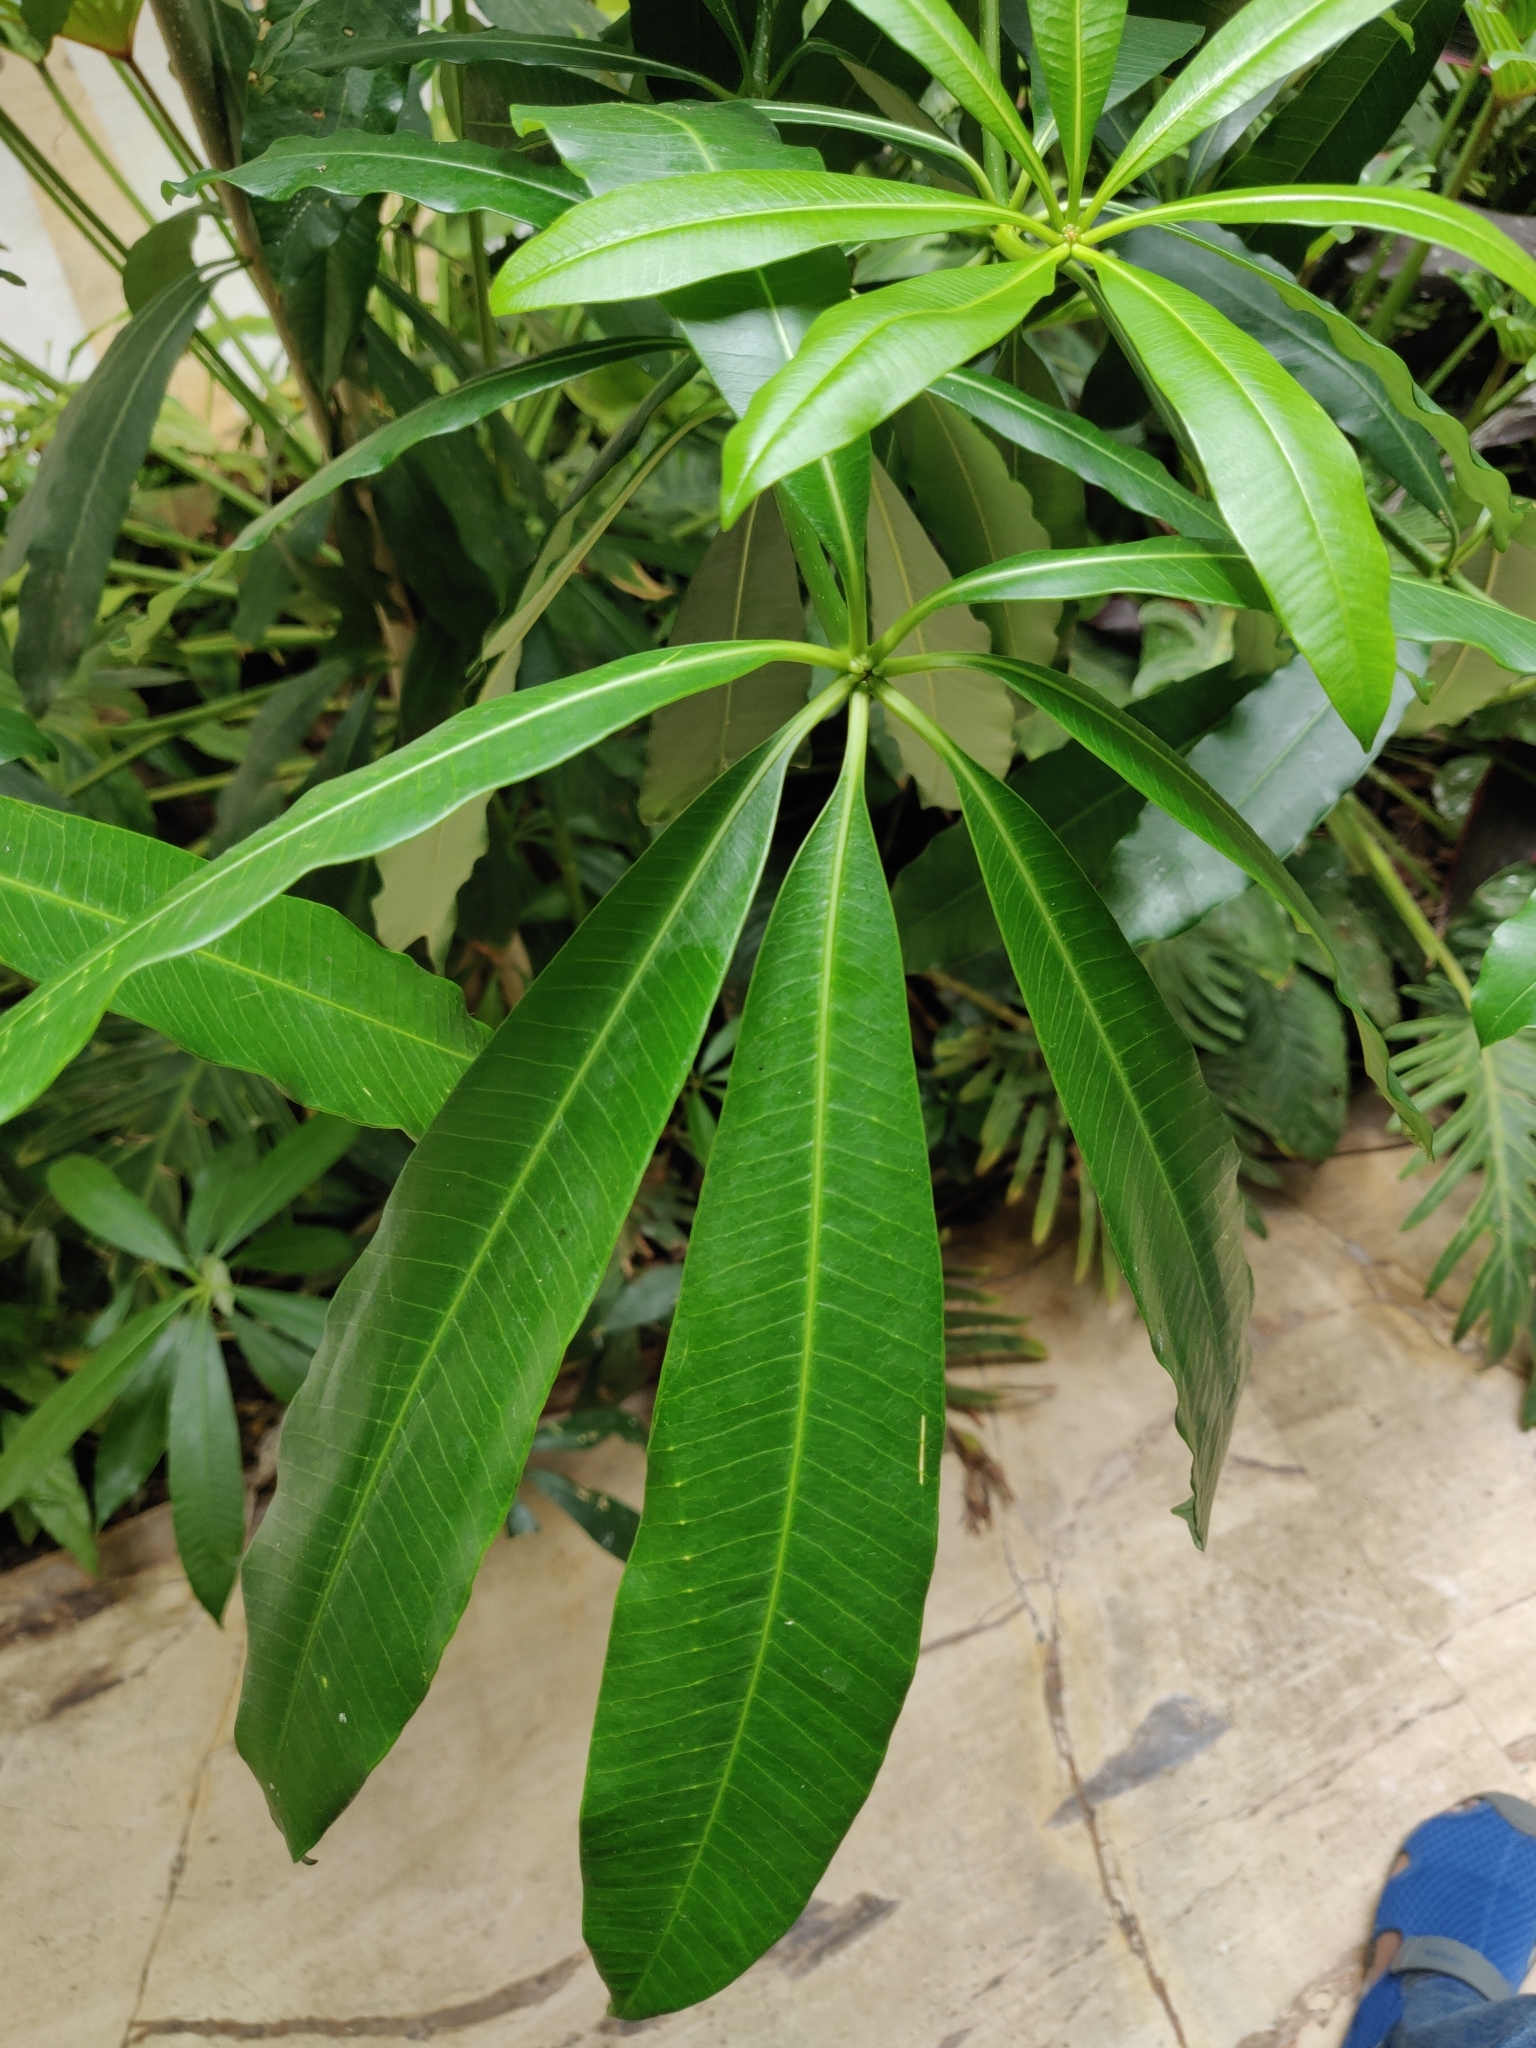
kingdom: Plantae
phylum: Tracheophyta
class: Magnoliopsida
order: Gentianales
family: Apocynaceae
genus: Alstonia
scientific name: Alstonia scholaris
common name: White cheesewood
